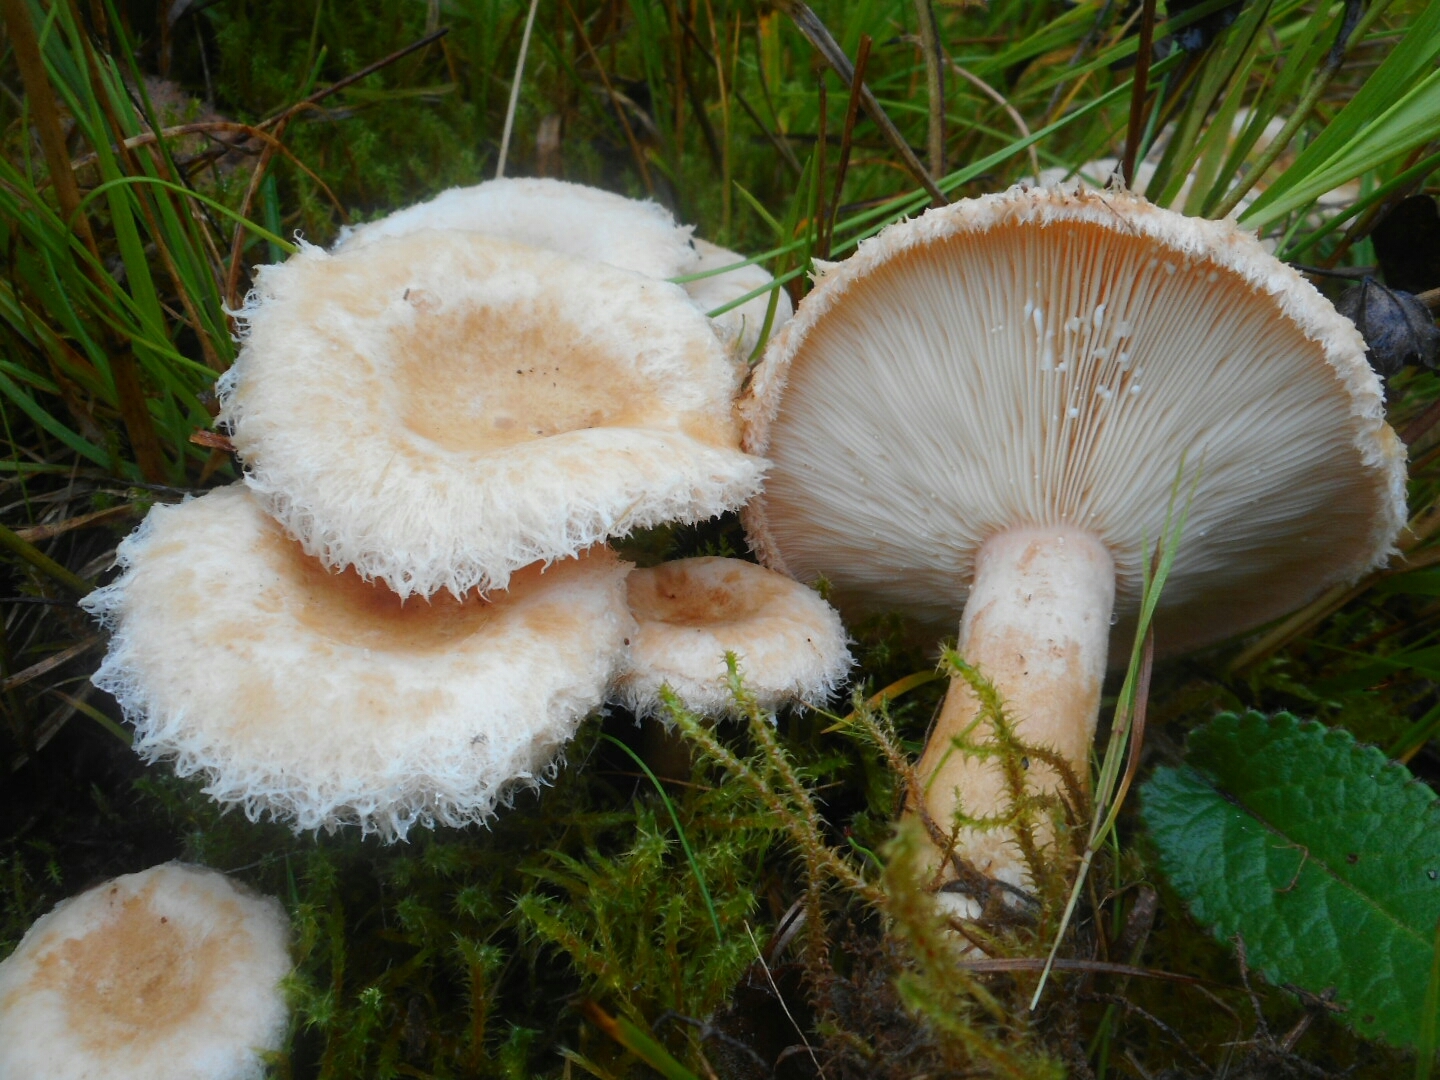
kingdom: Fungi
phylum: Basidiomycota
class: Agaricomycetes
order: Russulales
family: Russulaceae
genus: Lactarius
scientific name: Lactarius scoticus
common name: Hoary milkcap
